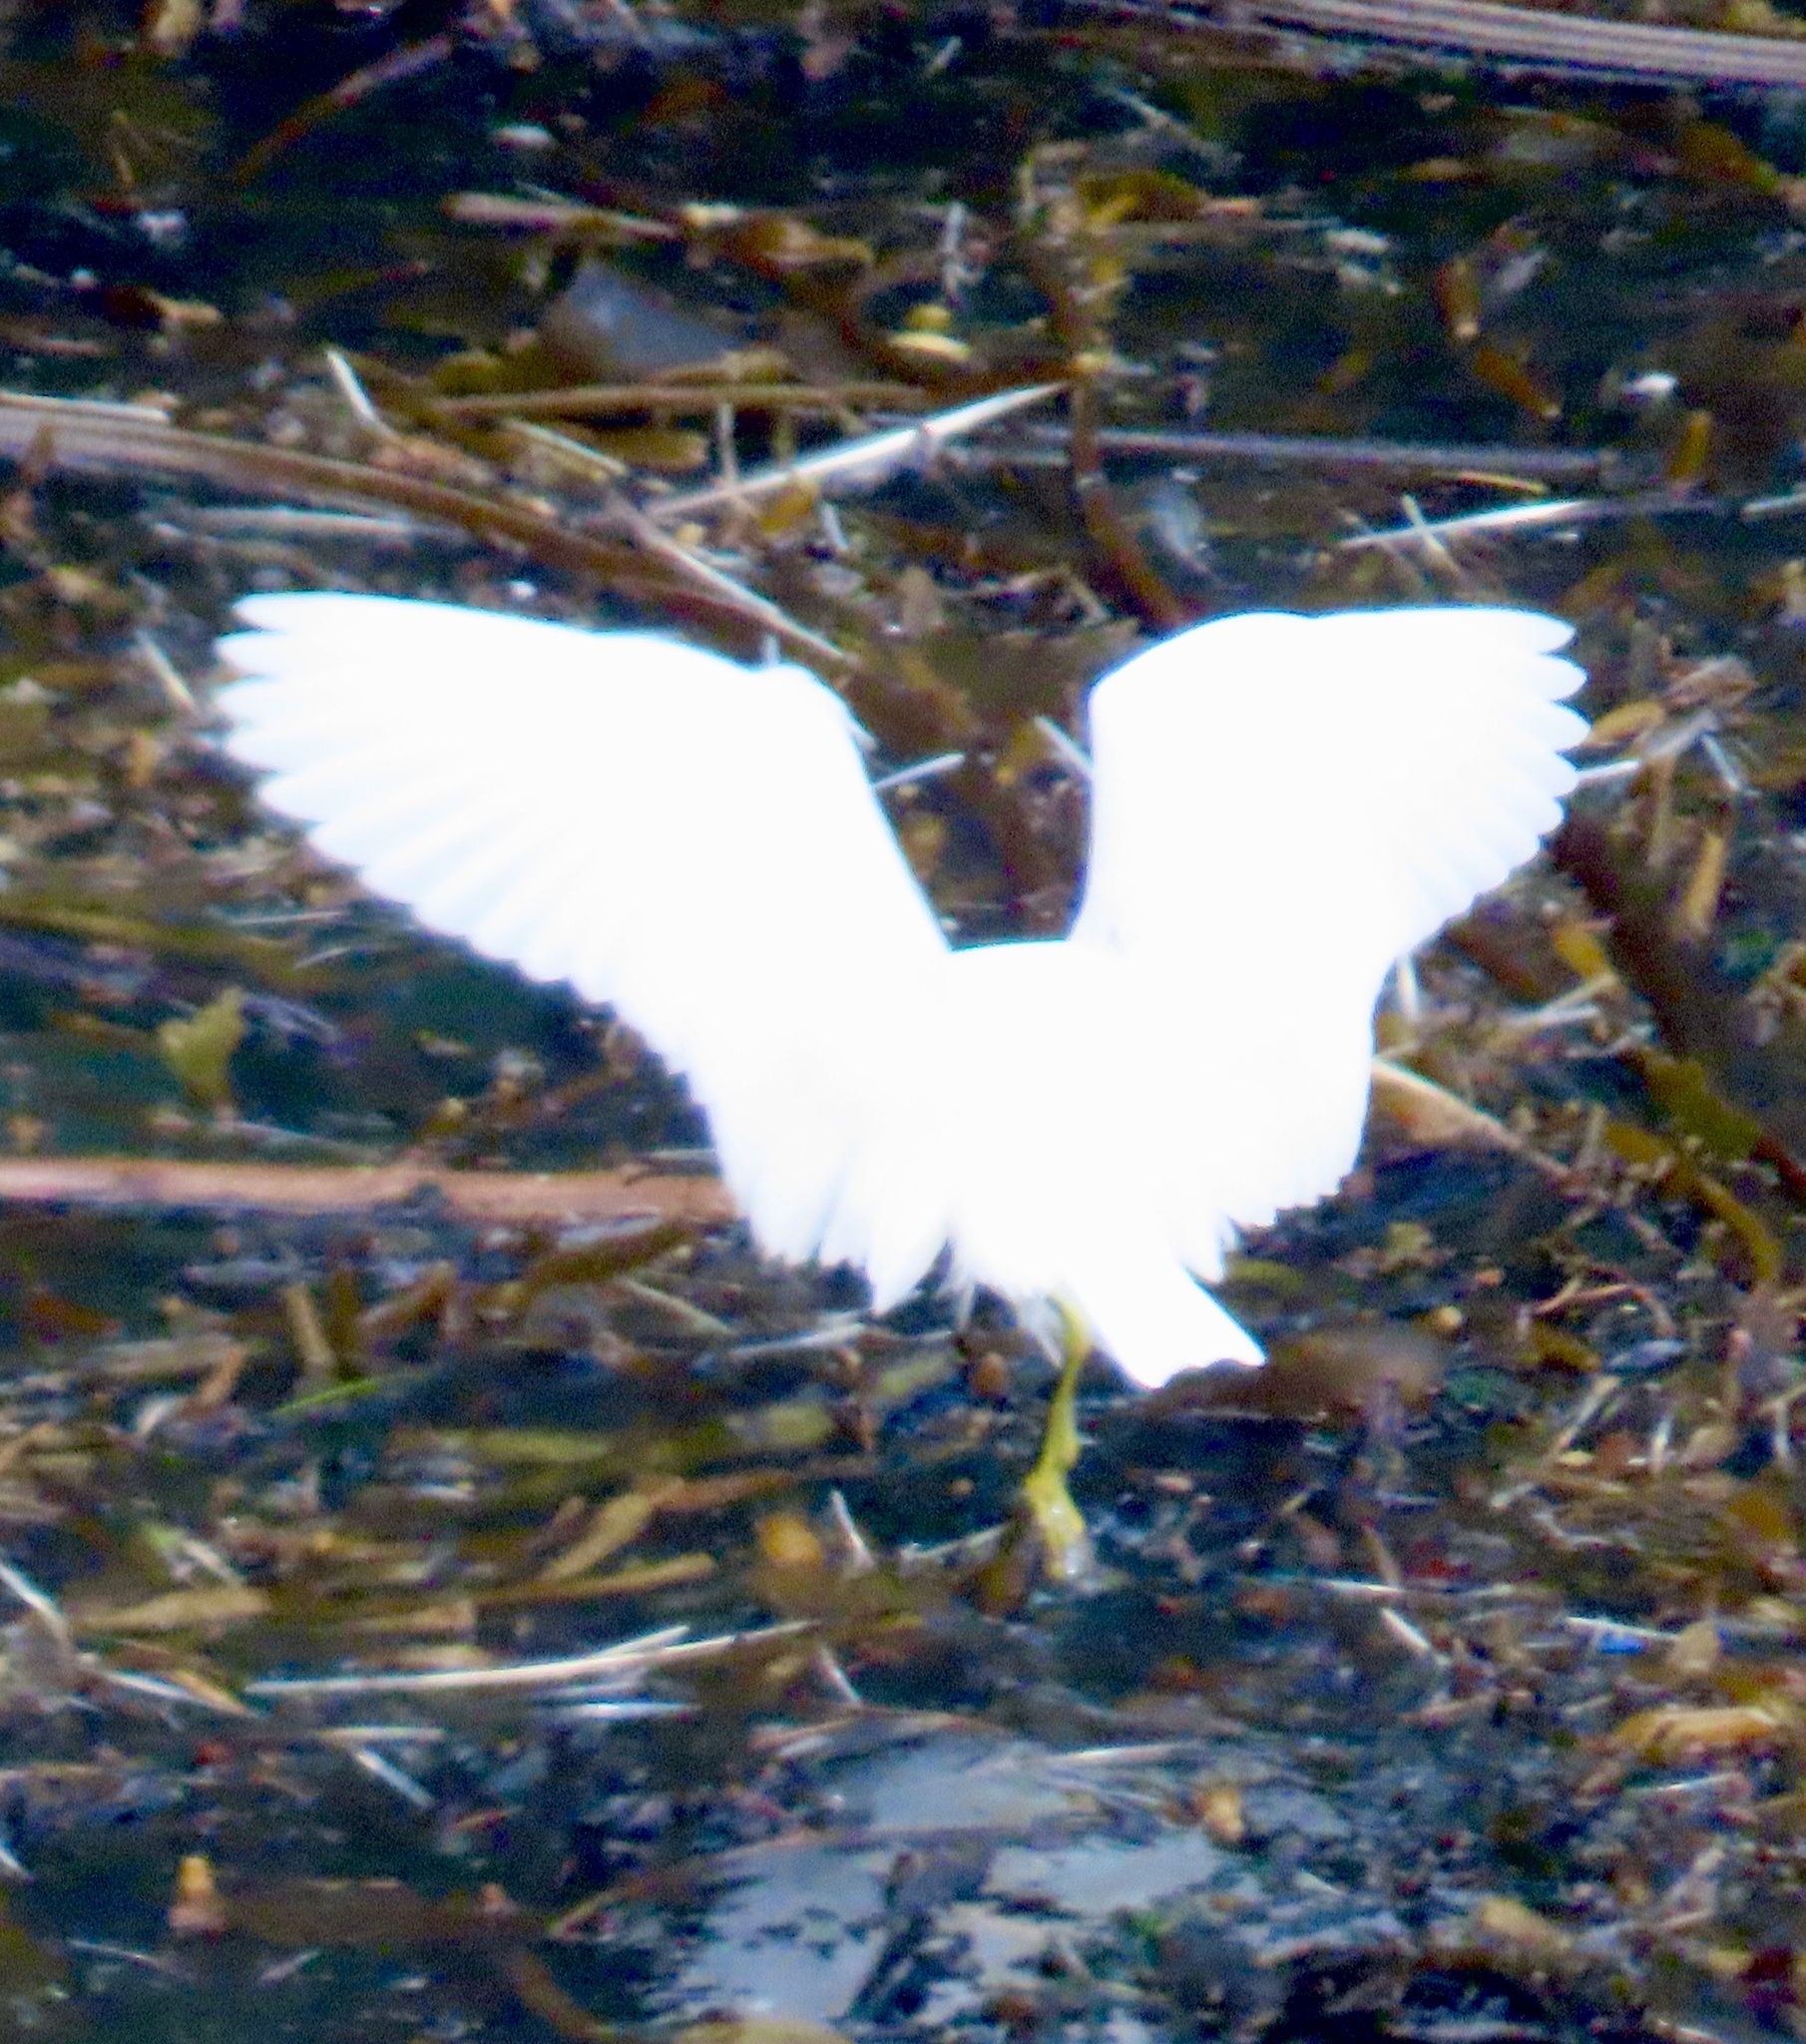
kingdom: Animalia
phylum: Chordata
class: Aves
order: Pelecaniformes
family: Ardeidae
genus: Egretta
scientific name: Egretta thula
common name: Snowy egret
